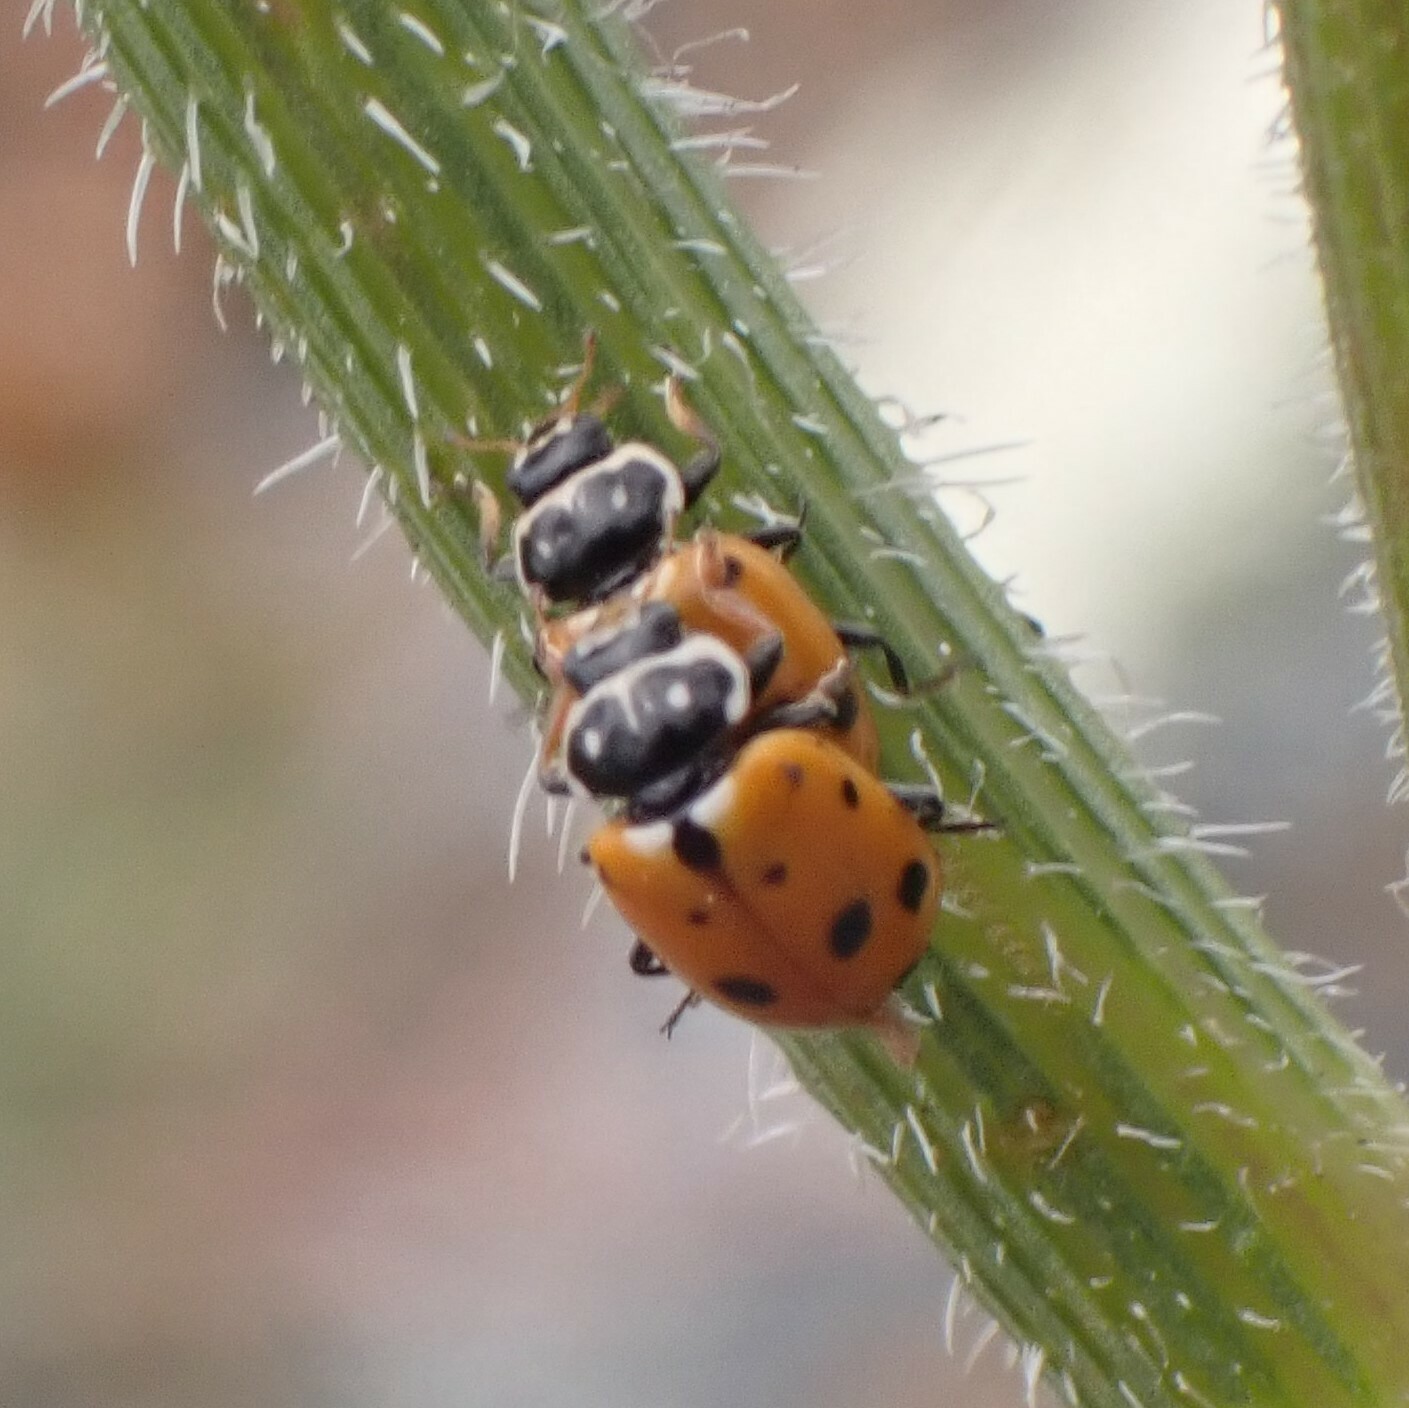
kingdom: Animalia
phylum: Arthropoda
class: Insecta
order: Coleoptera
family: Coccinellidae
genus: Hippodamia
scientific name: Hippodamia variegata
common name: Ladybird beetle
